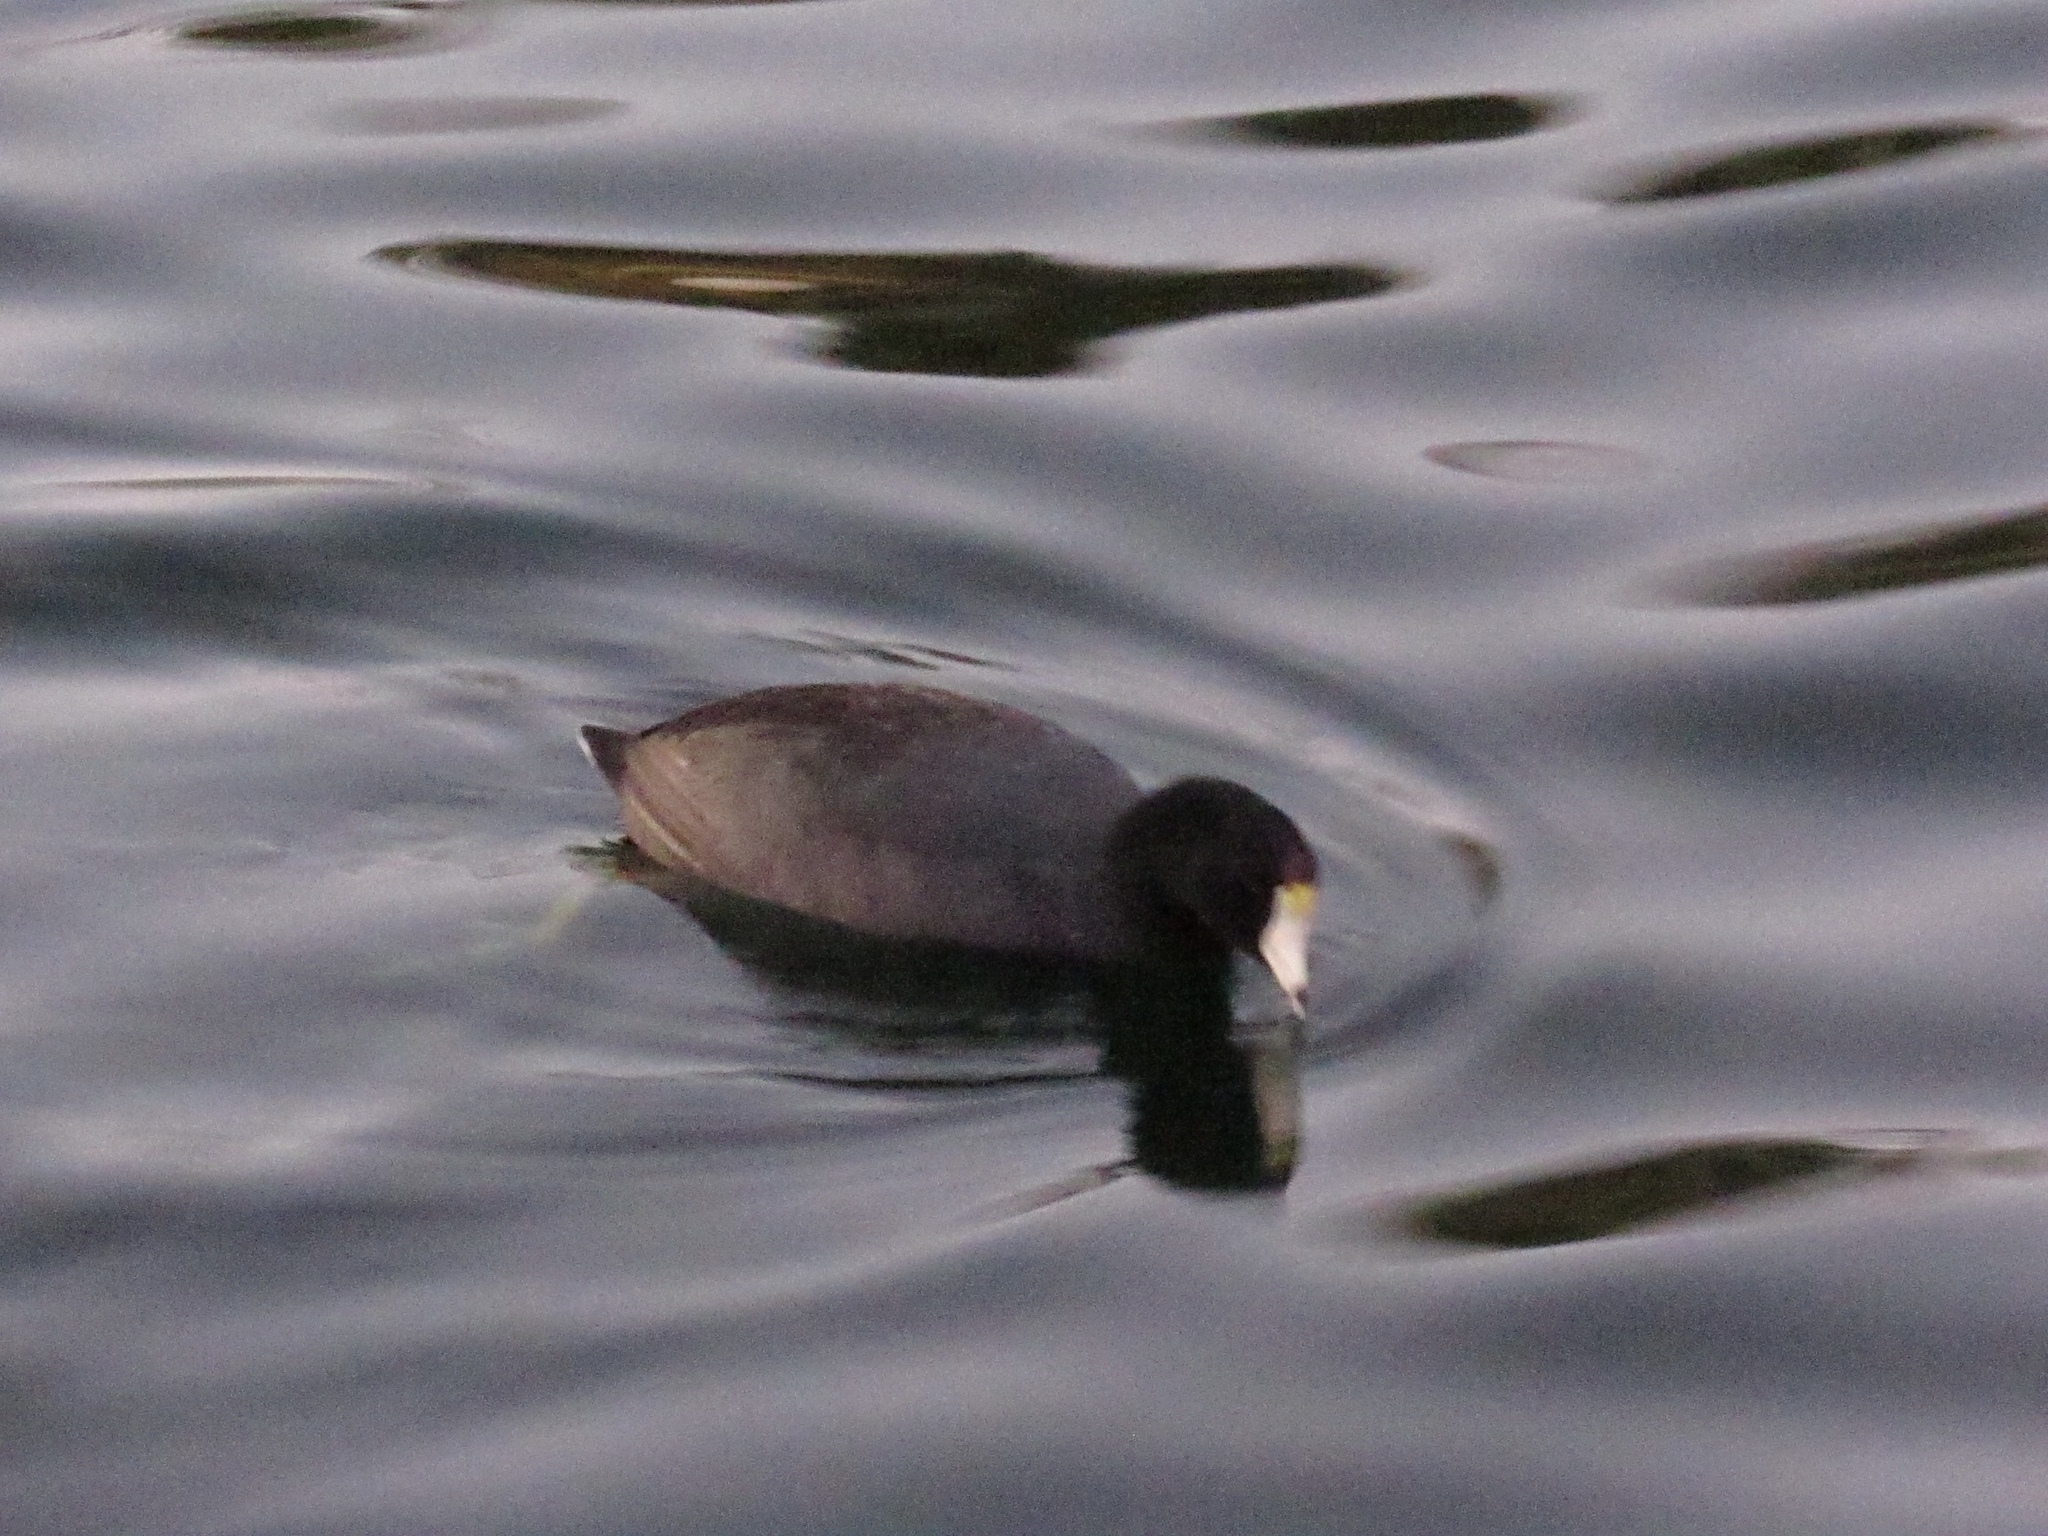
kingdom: Animalia
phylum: Chordata
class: Aves
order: Gruiformes
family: Rallidae
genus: Fulica
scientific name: Fulica americana
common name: American coot
